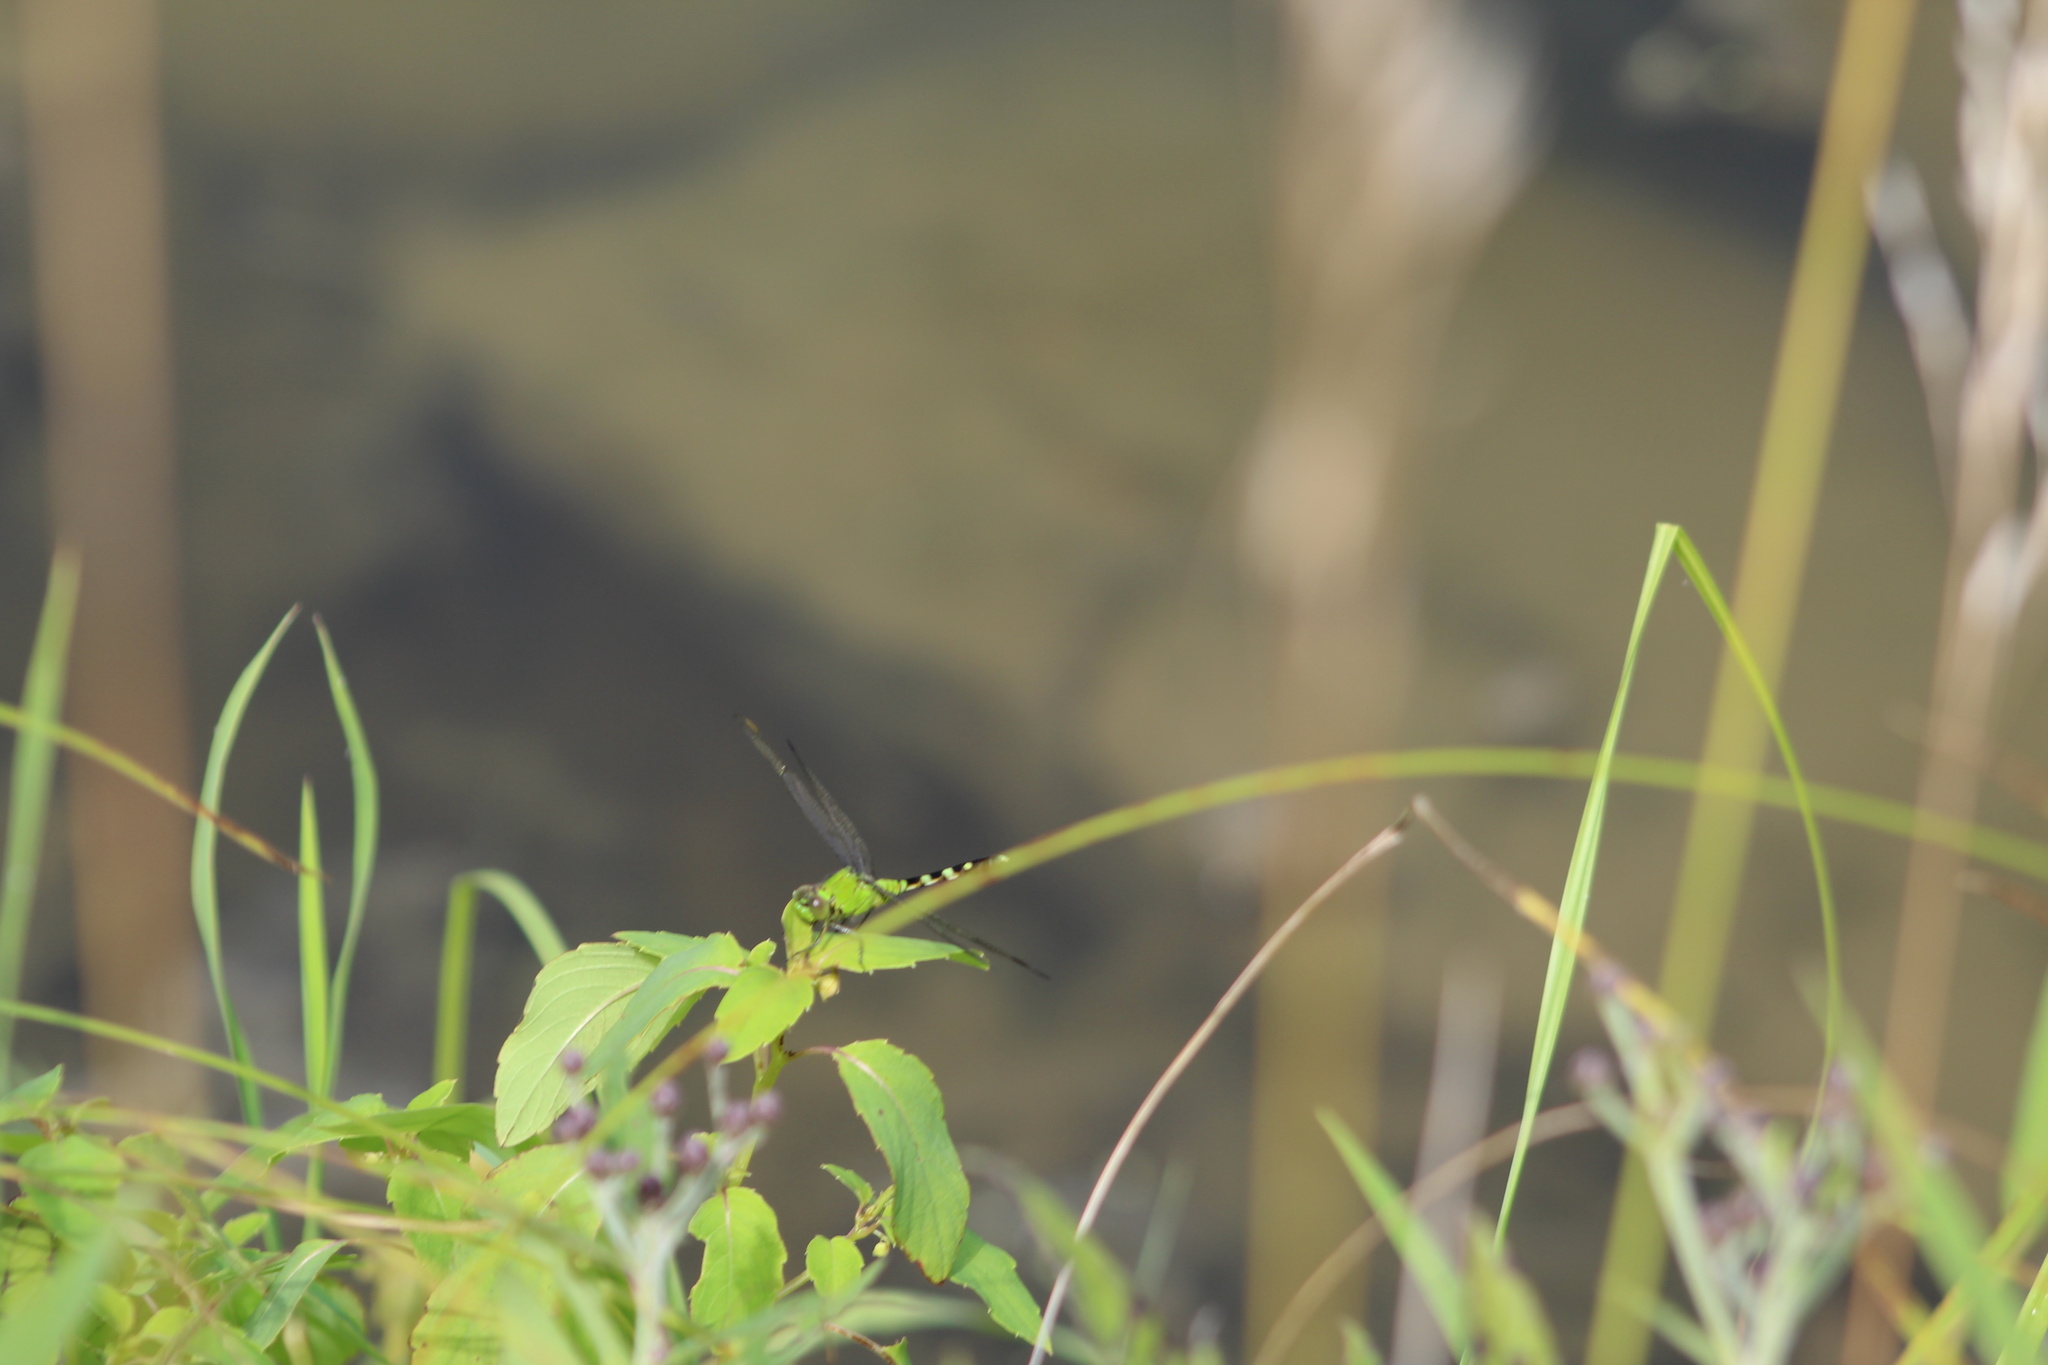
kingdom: Animalia
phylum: Arthropoda
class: Insecta
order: Odonata
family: Libellulidae
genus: Erythemis
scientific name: Erythemis simplicicollis
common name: Eastern pondhawk
